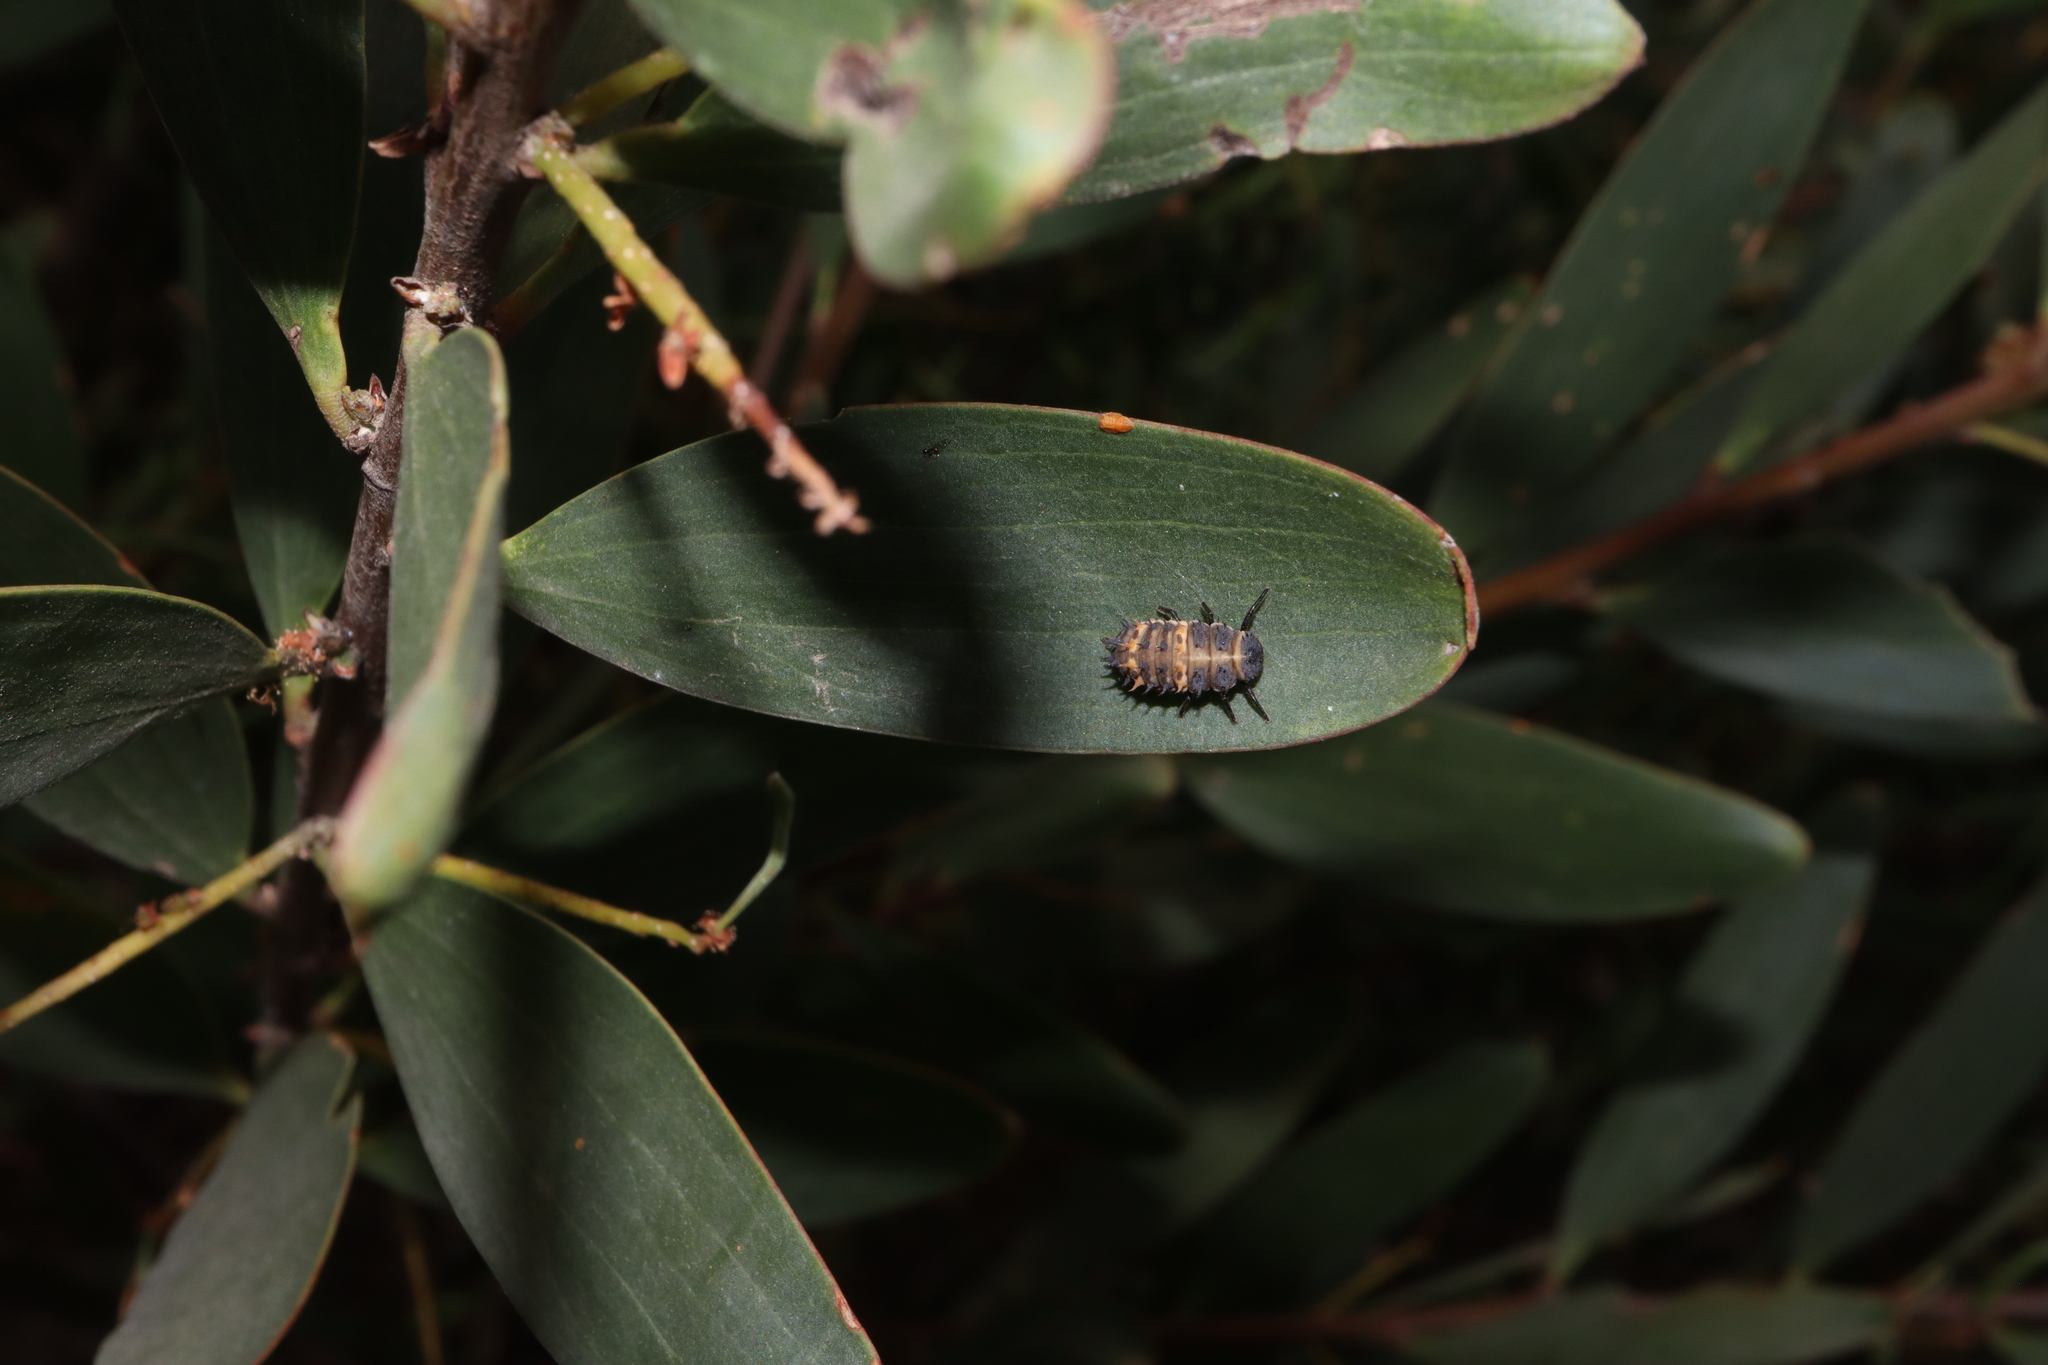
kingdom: Animalia
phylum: Arthropoda
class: Insecta
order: Coleoptera
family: Coccinellidae
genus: Harmonia
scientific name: Harmonia conformis
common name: Common spotted ladybird beetle
